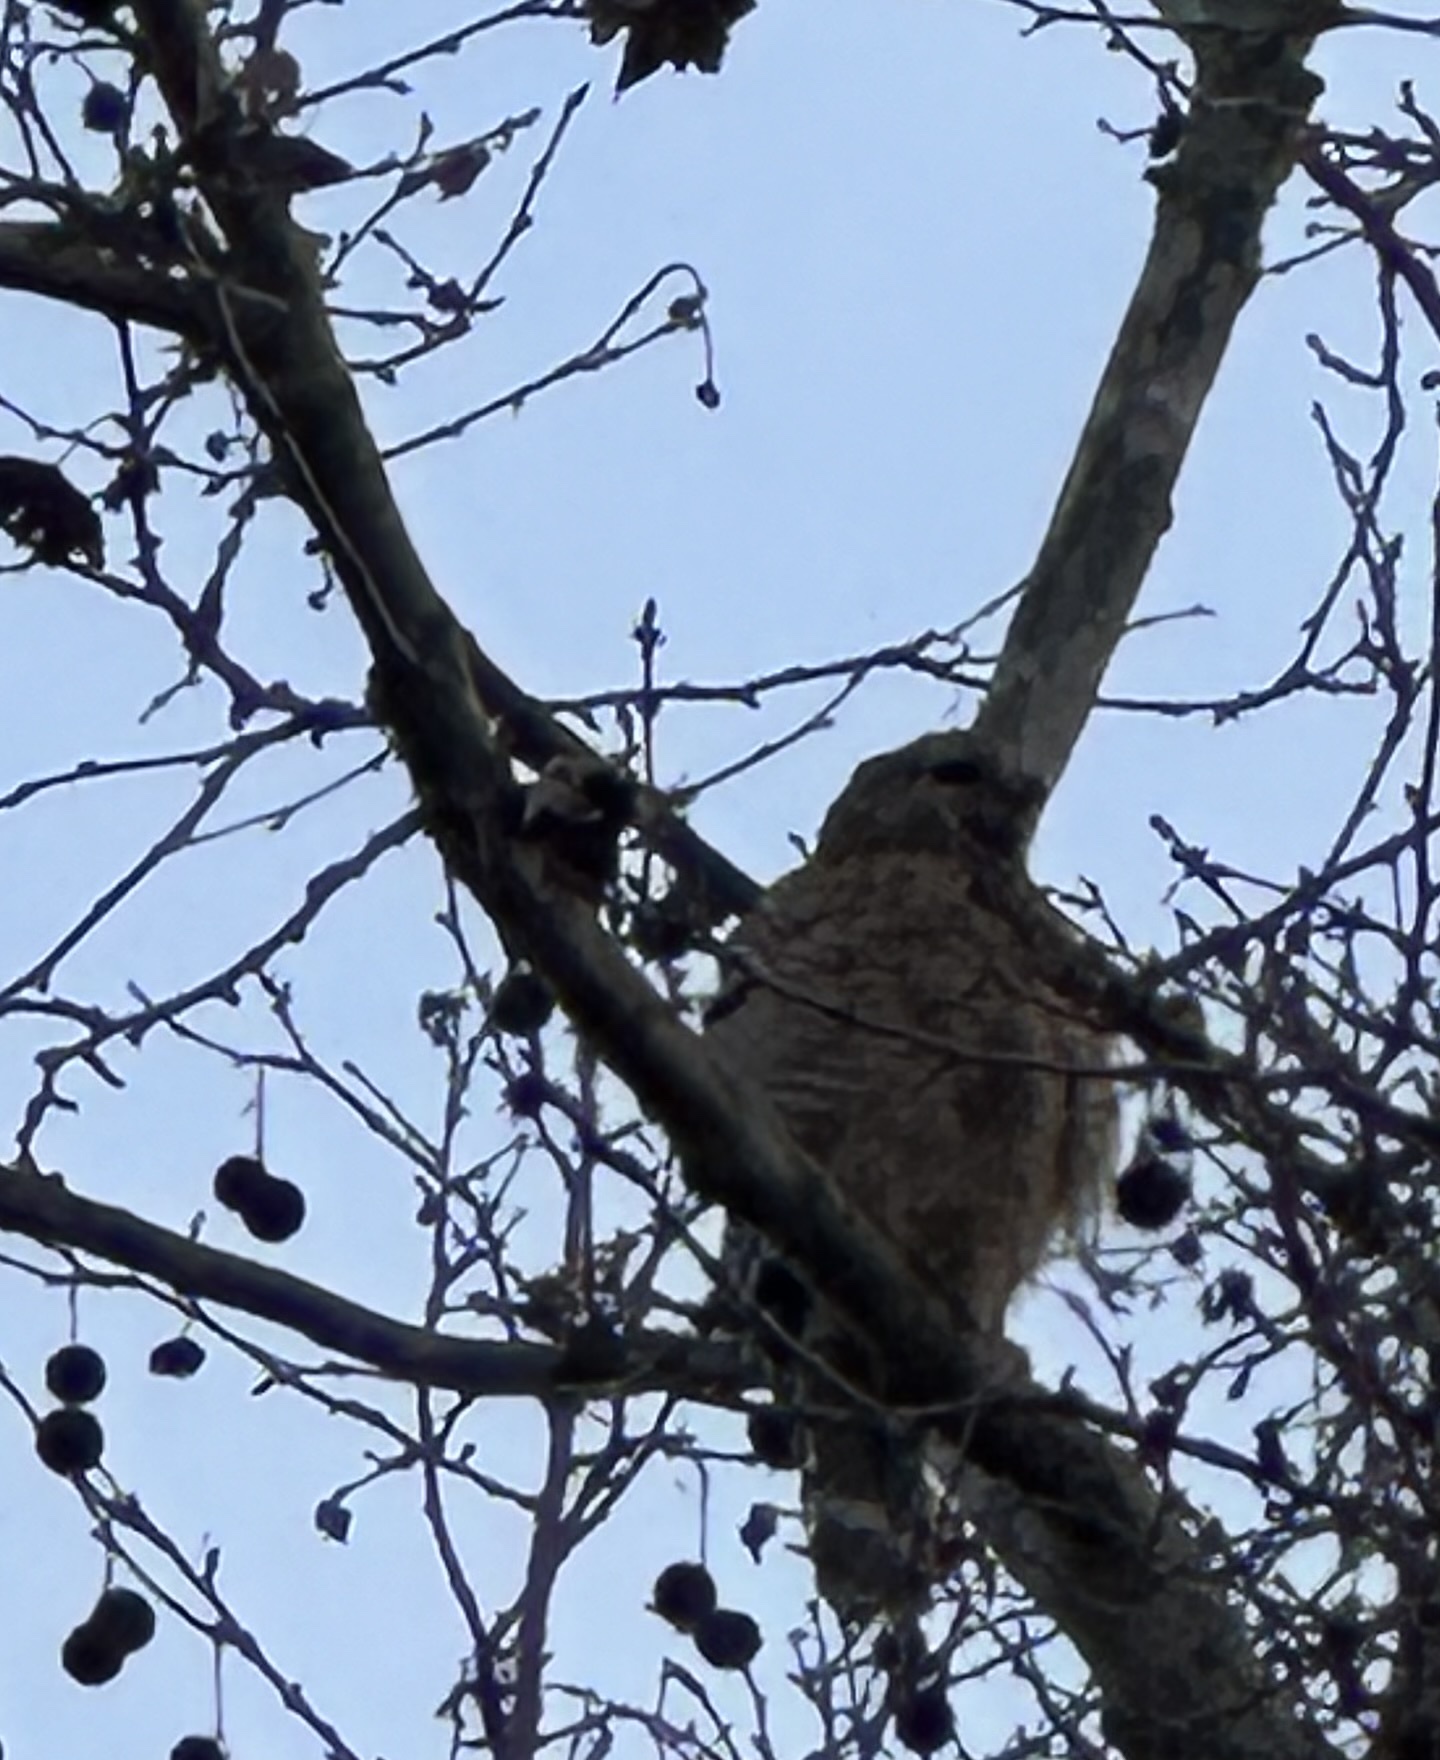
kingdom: Animalia
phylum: Chordata
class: Aves
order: Accipitriformes
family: Accipitridae
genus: Buteo
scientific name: Buteo lineatus
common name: Red-shouldered hawk
